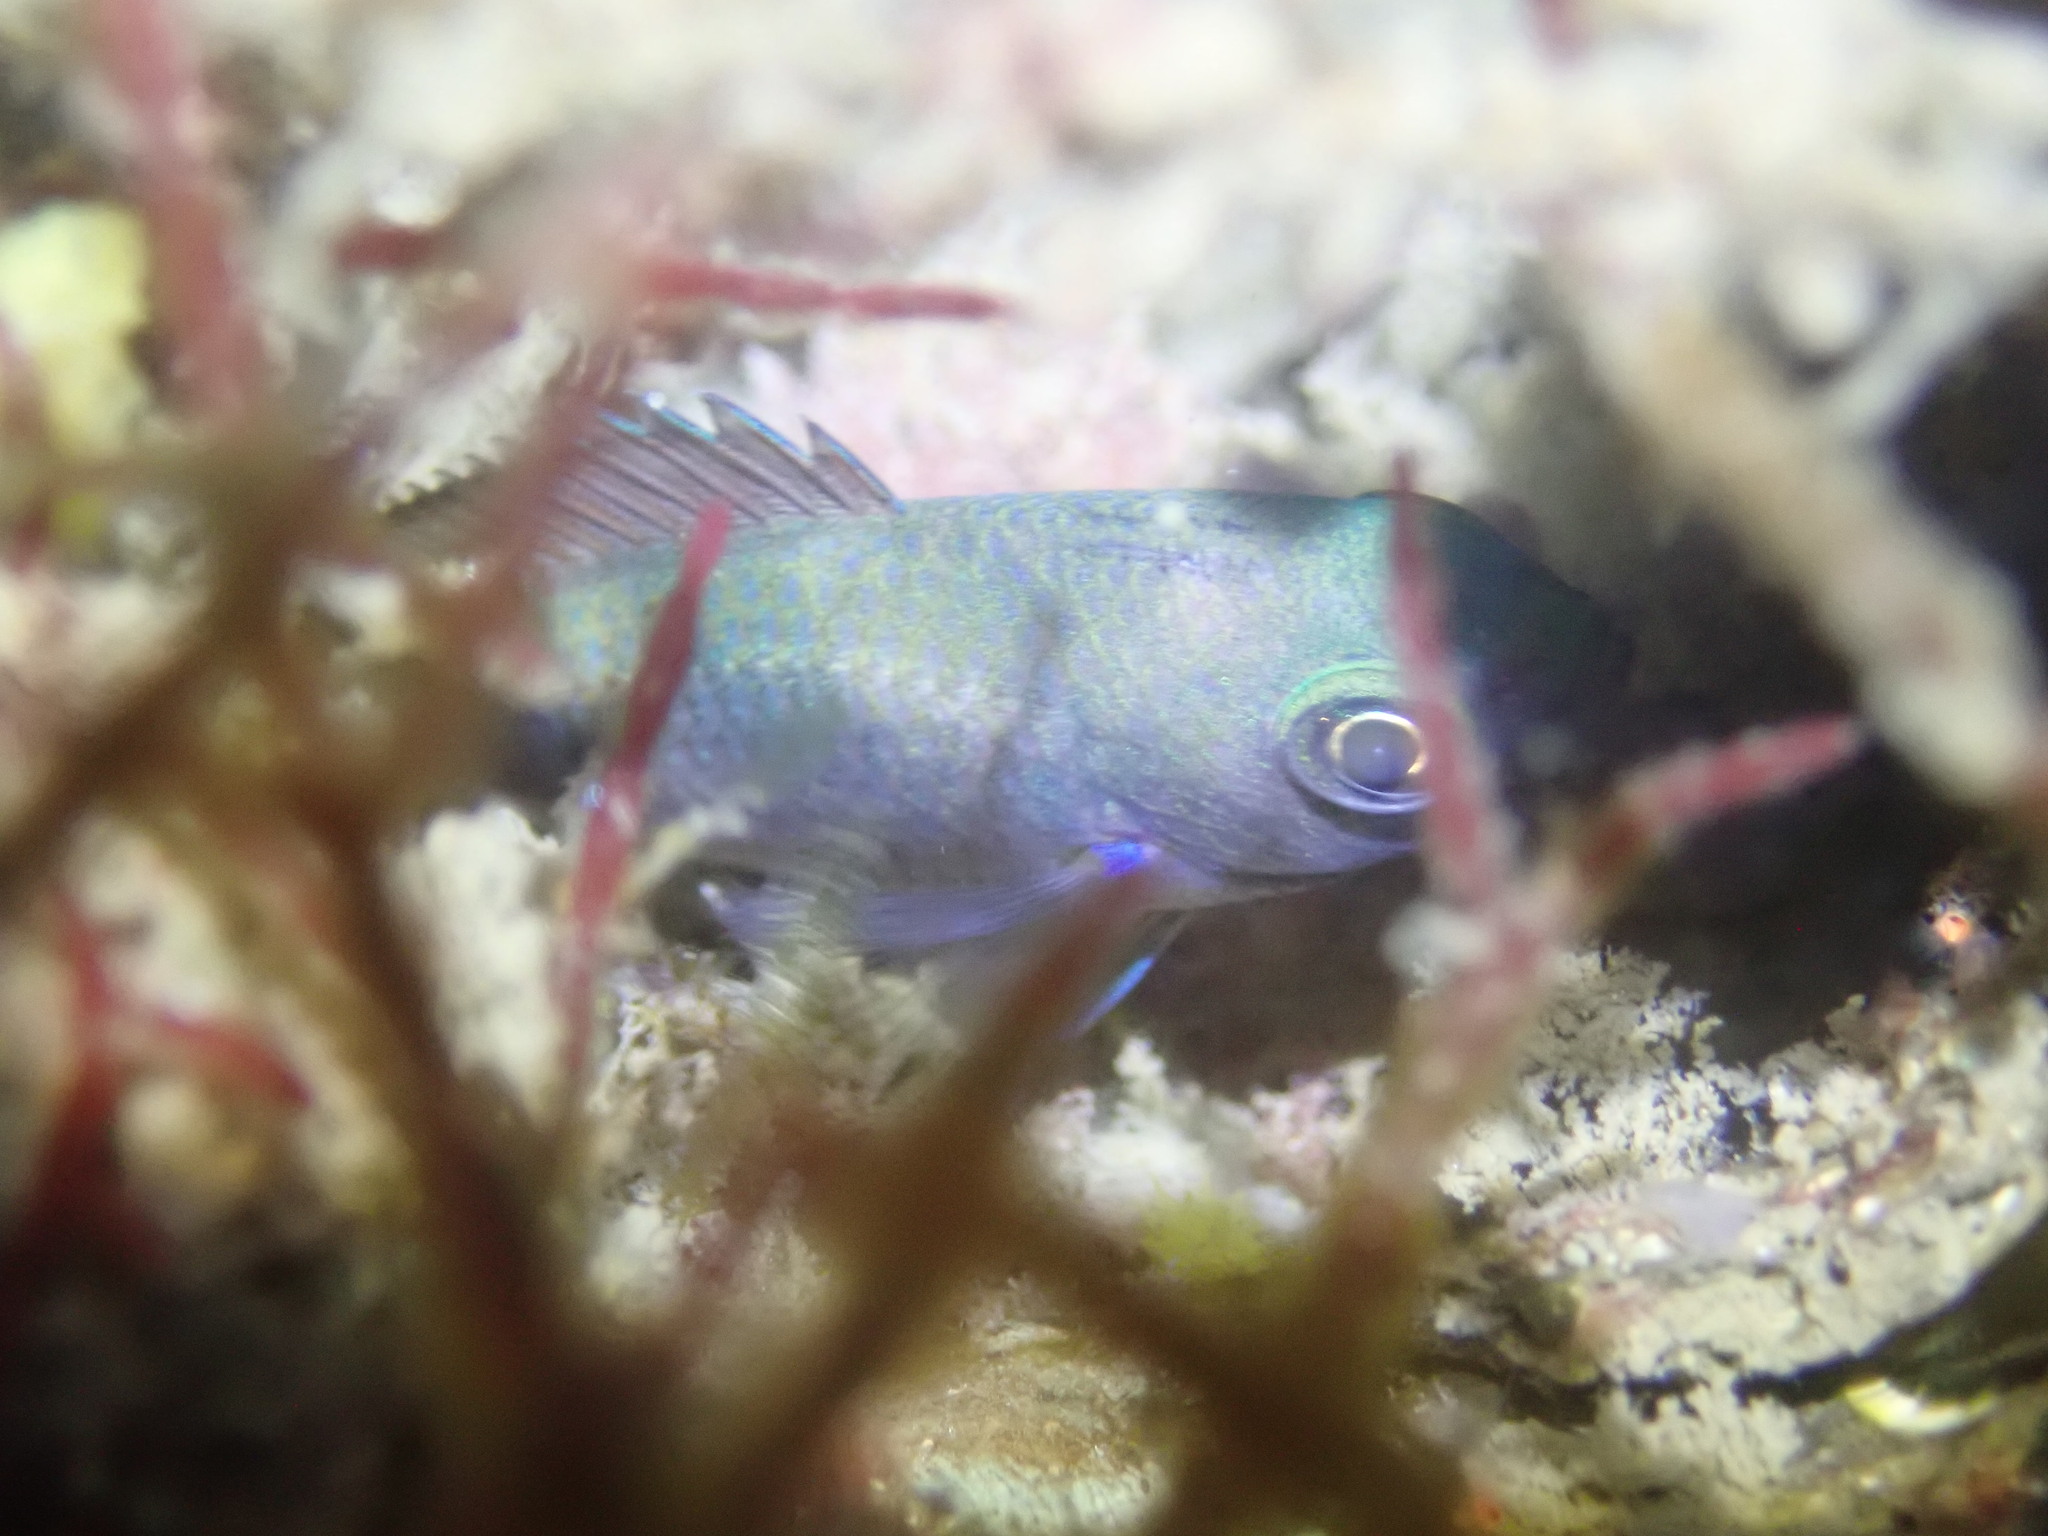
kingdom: Animalia
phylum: Chordata
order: Perciformes
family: Pomacentridae
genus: Chromis
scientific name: Chromis punctipinnis
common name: Blacksmith
